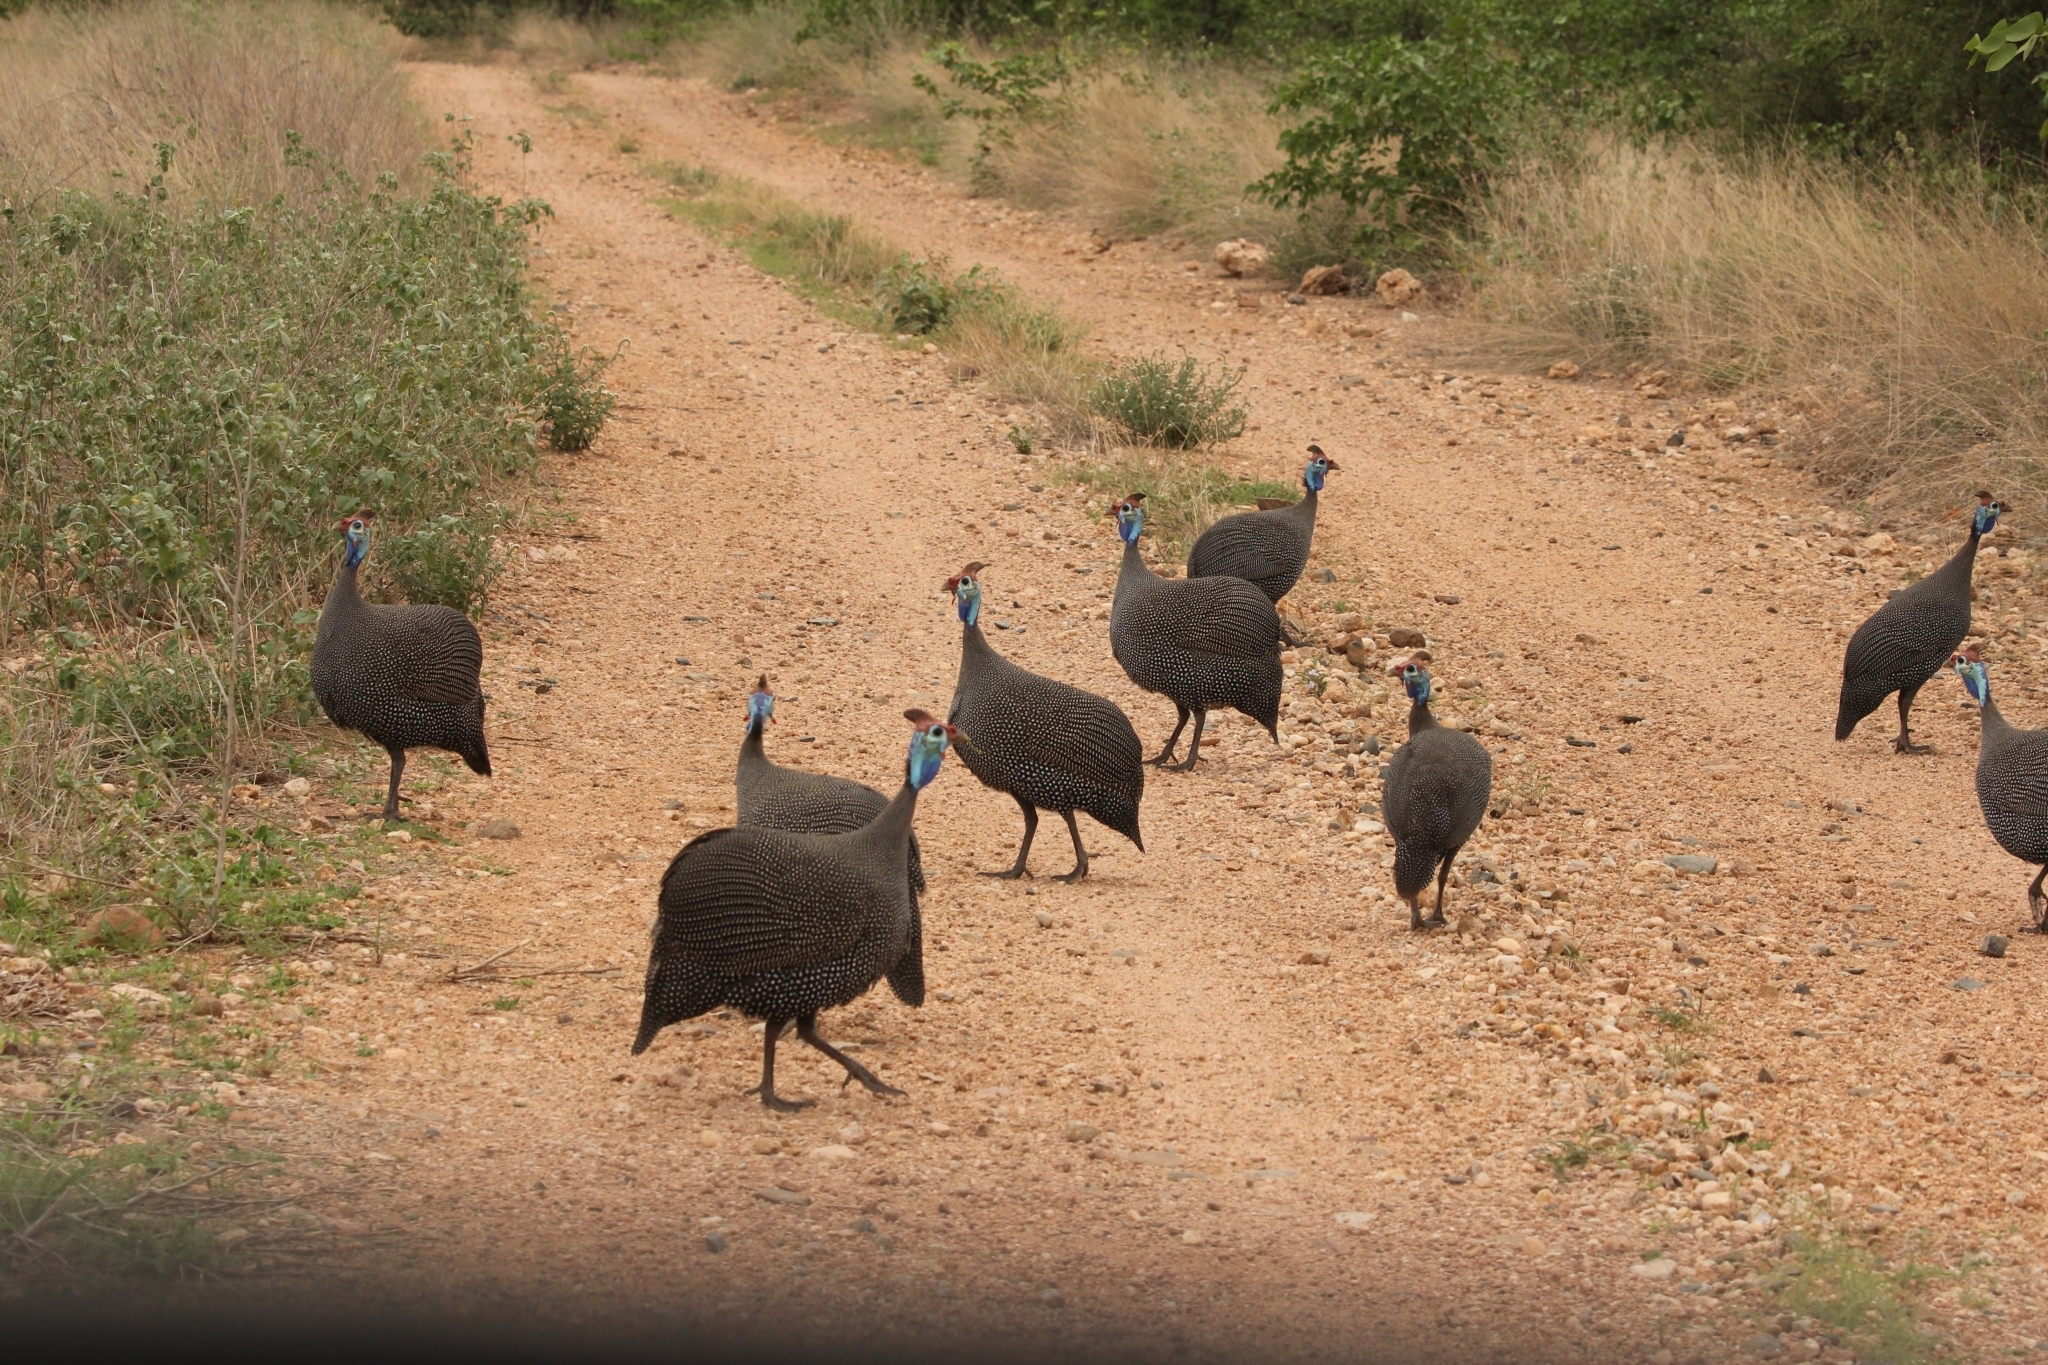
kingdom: Animalia
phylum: Chordata
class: Aves
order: Galliformes
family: Numididae
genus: Numida
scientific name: Numida meleagris
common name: Helmeted guineafowl
